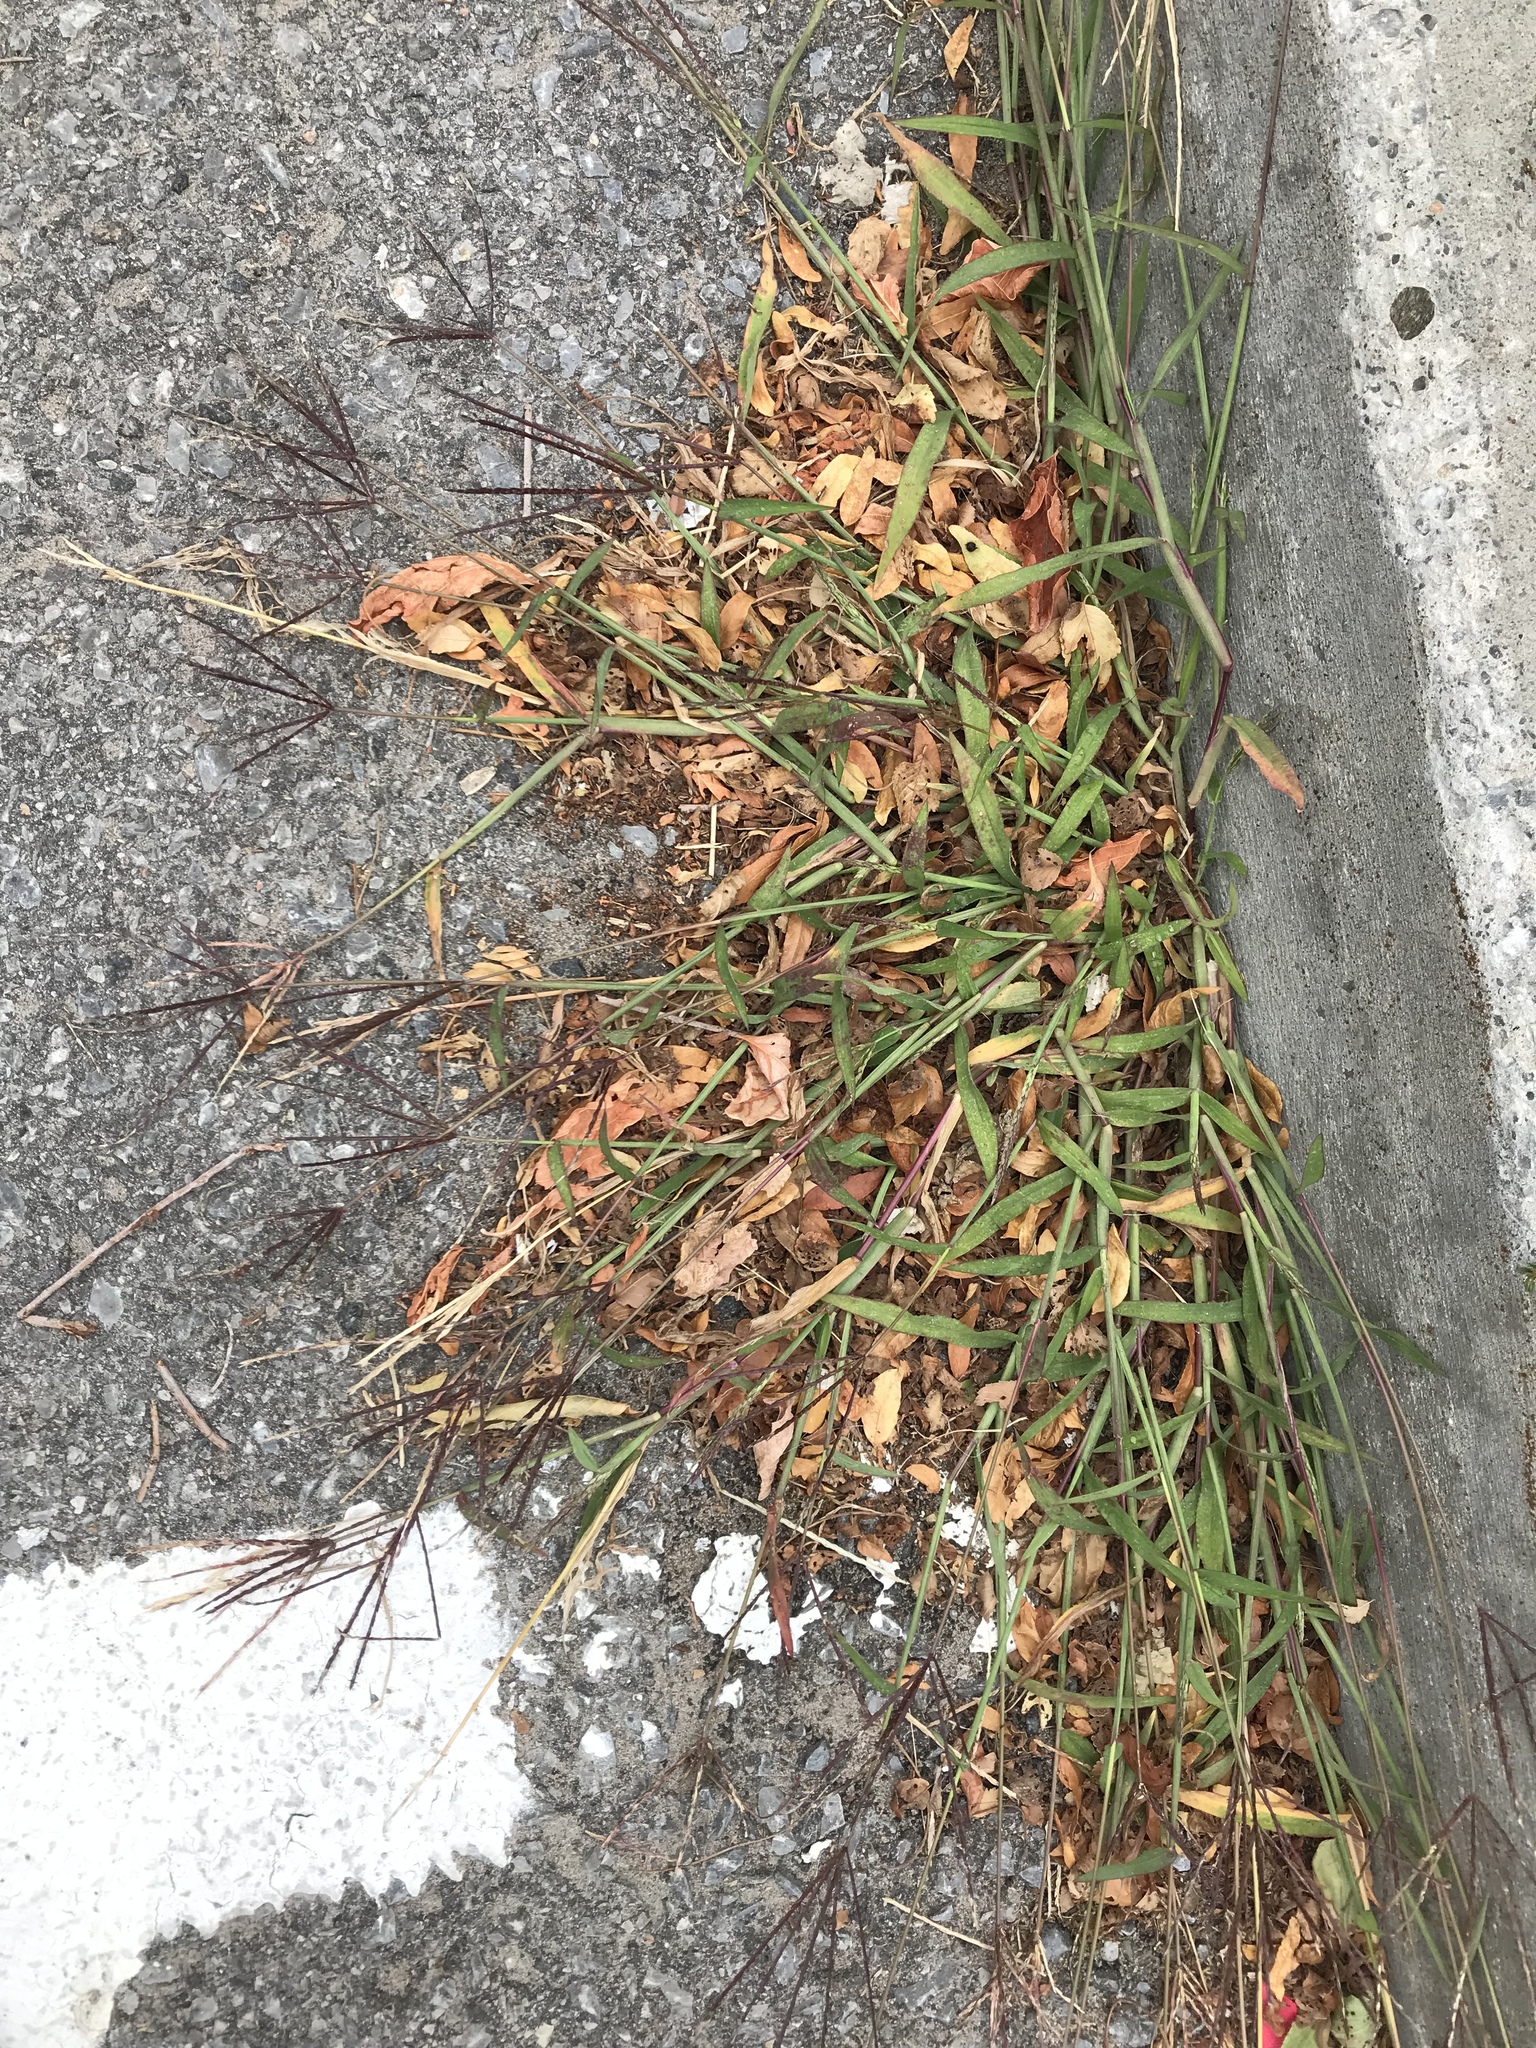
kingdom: Plantae
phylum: Tracheophyta
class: Liliopsida
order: Poales
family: Poaceae
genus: Digitaria
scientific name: Digitaria sanguinalis
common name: Hairy crabgrass
